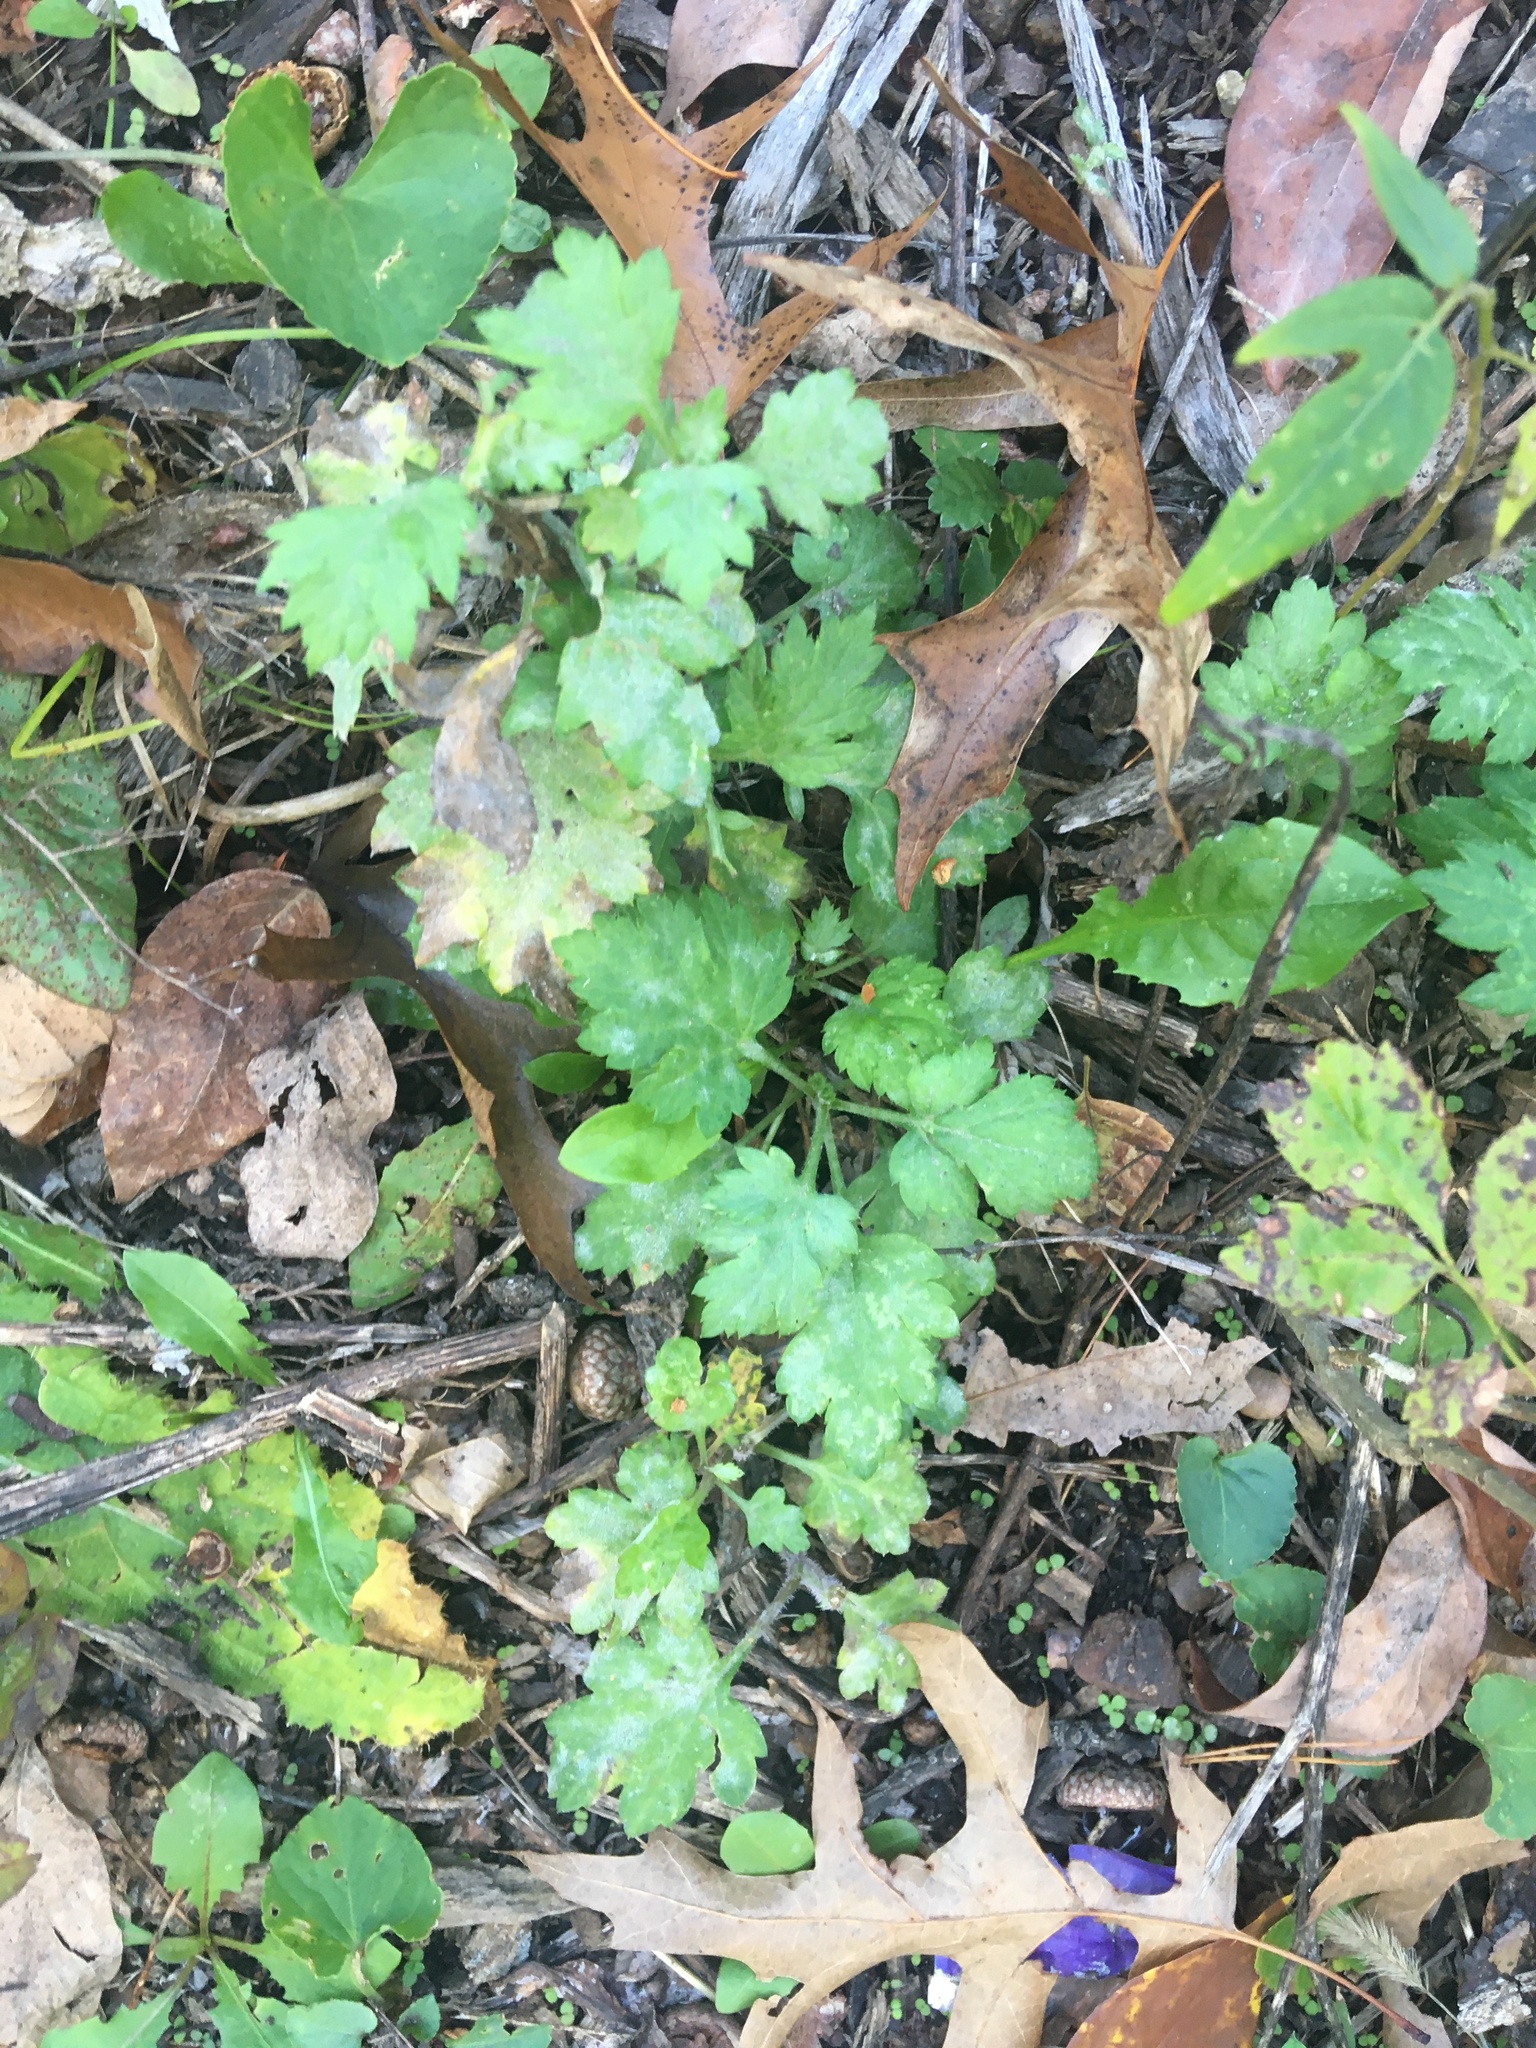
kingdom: Plantae
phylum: Tracheophyta
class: Magnoliopsida
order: Asterales
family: Asteraceae
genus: Artemisia
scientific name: Artemisia vulgaris
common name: Mugwort
